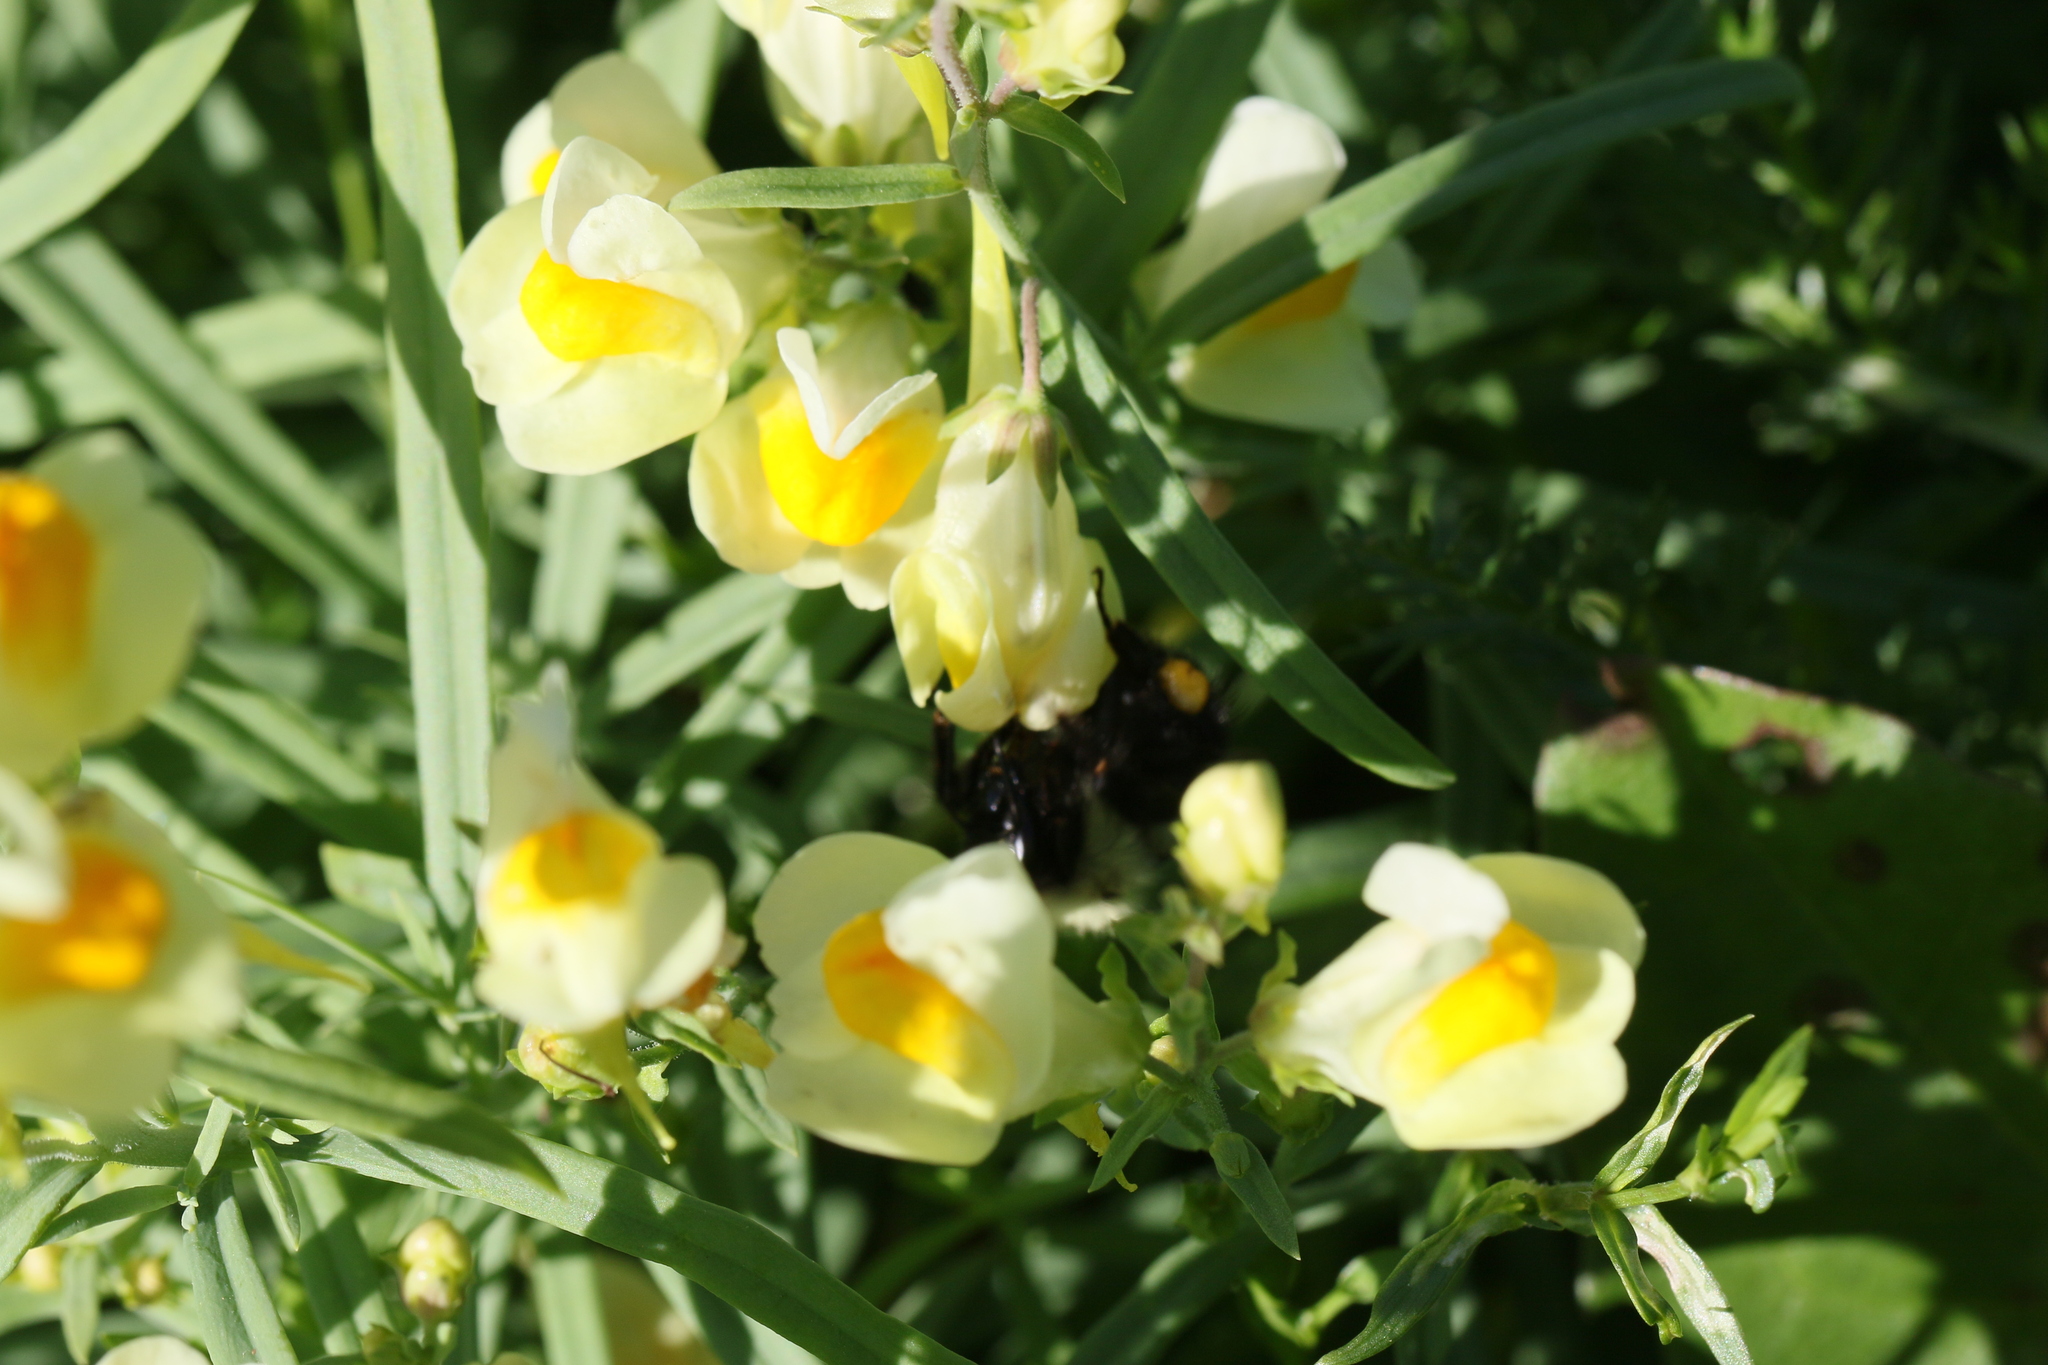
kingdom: Plantae
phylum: Tracheophyta
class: Magnoliopsida
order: Lamiales
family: Plantaginaceae
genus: Linaria
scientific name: Linaria vulgaris
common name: Butter and eggs
